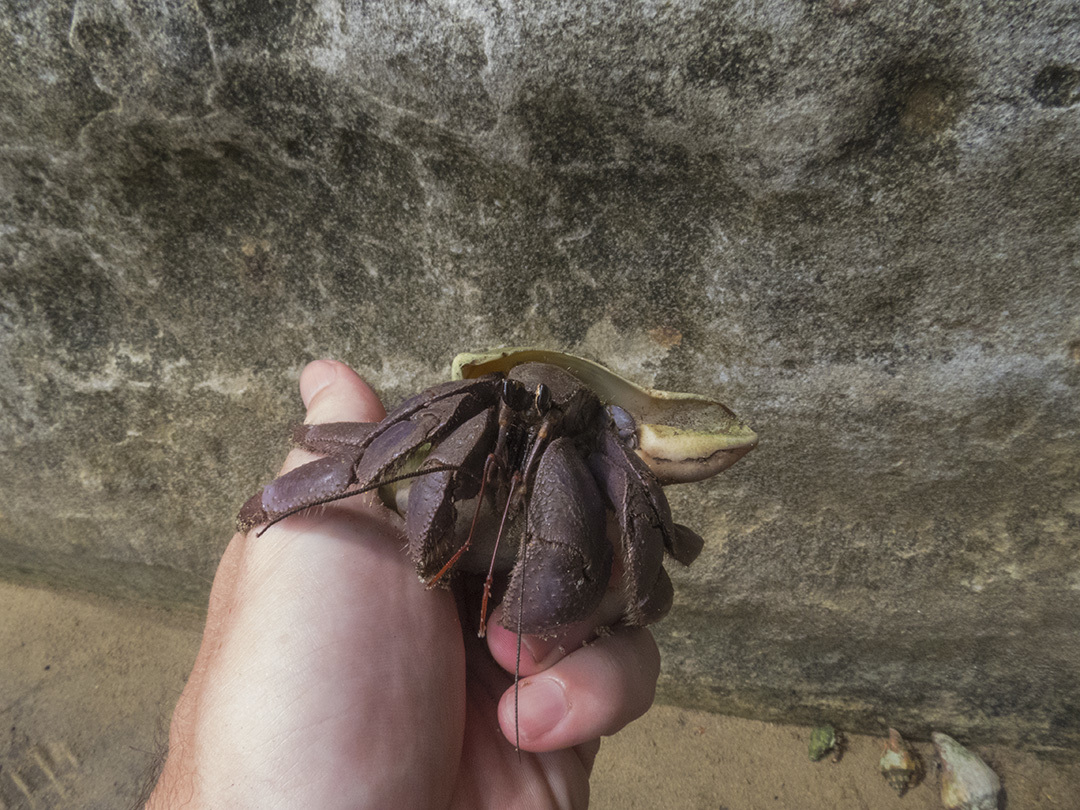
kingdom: Animalia
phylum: Arthropoda
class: Malacostraca
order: Decapoda
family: Coenobitidae
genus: Coenobita
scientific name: Coenobita violascens
